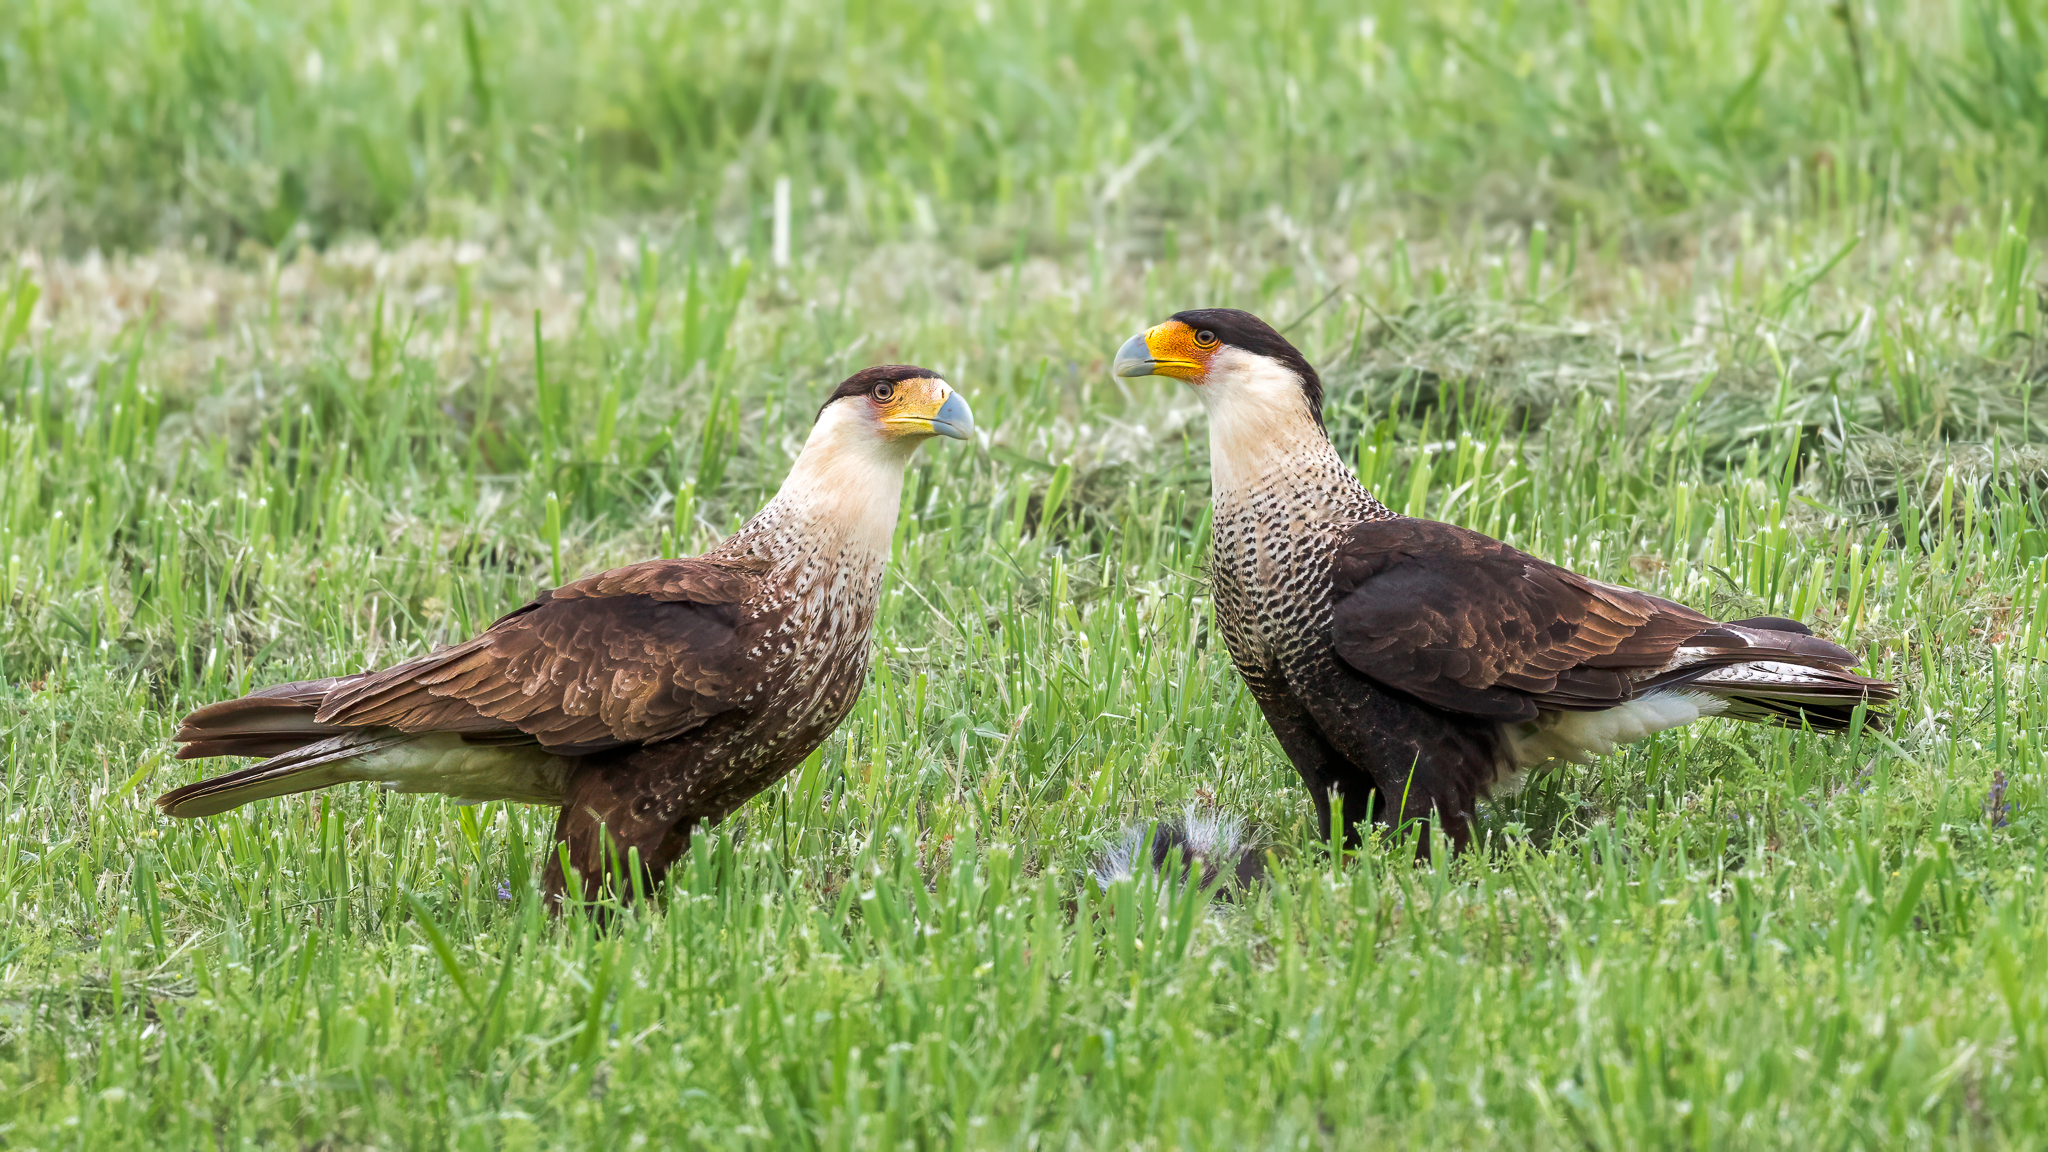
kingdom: Animalia
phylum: Chordata
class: Aves
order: Falconiformes
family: Falconidae
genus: Caracara
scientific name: Caracara plancus
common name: Southern caracara
